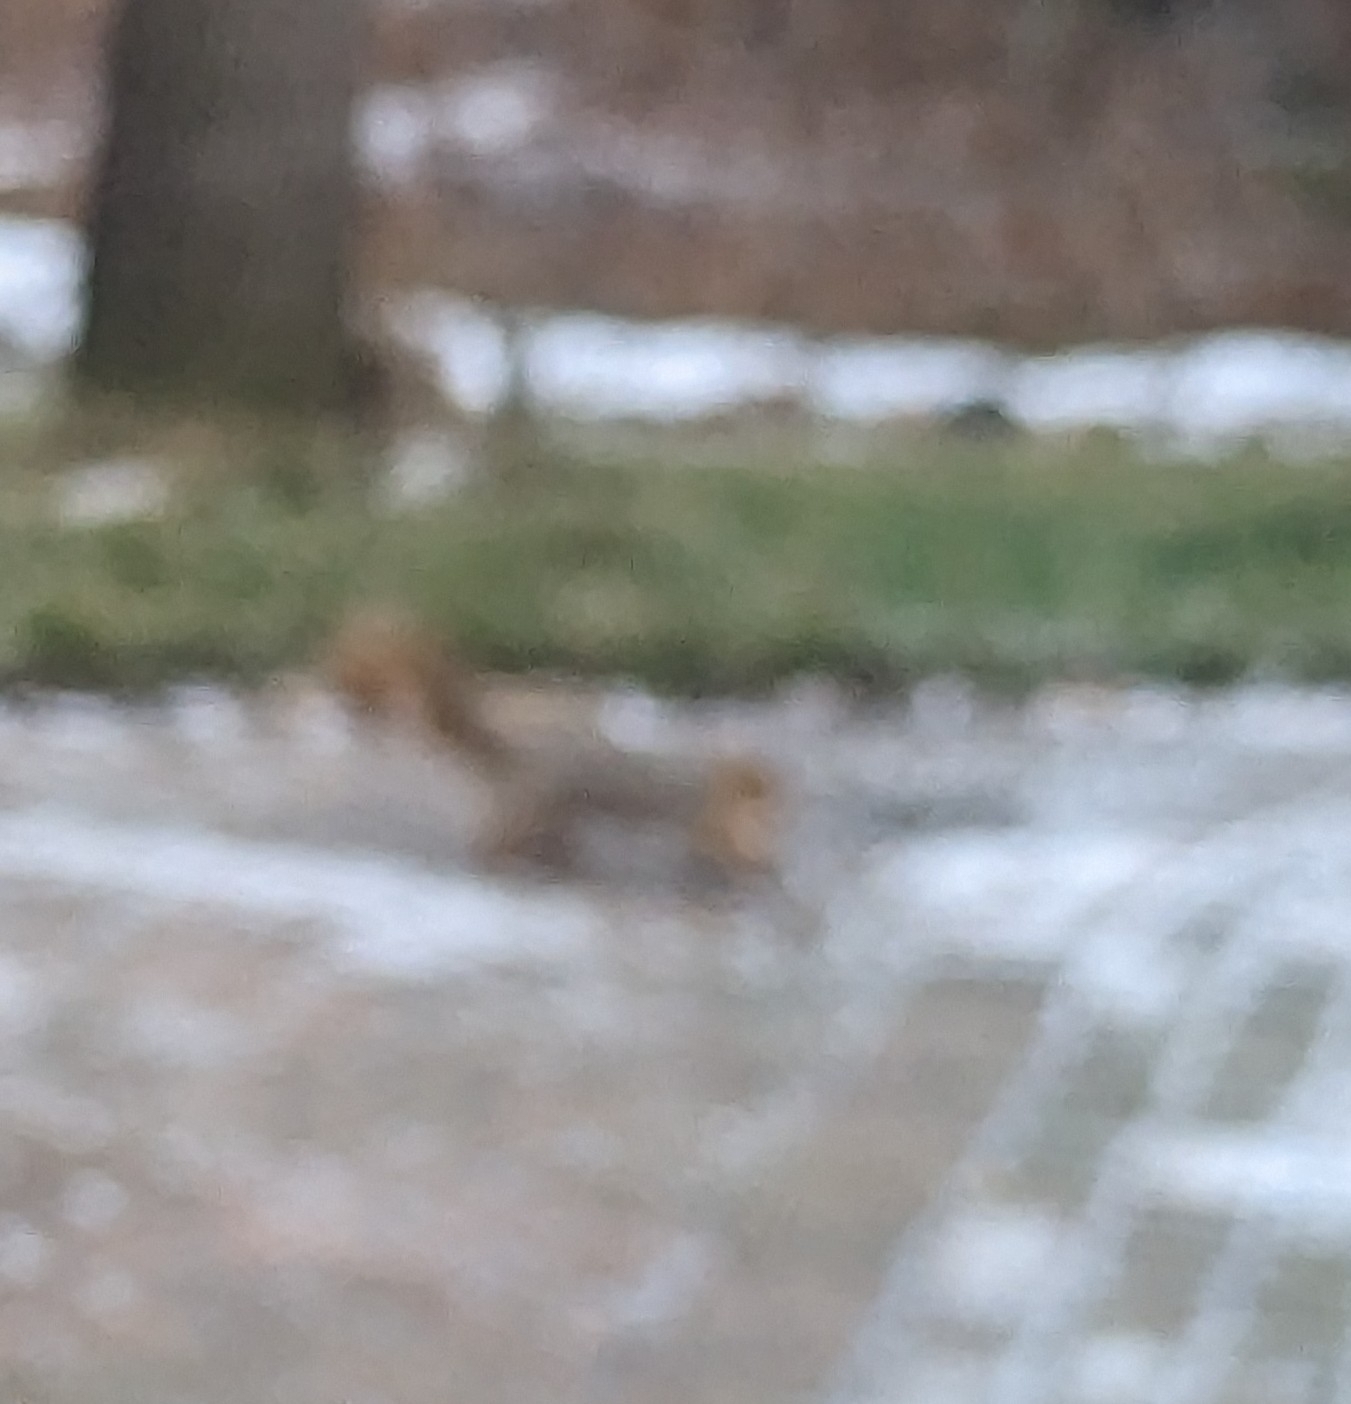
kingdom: Animalia
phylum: Chordata
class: Mammalia
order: Rodentia
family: Sciuridae
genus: Sciurus
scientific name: Sciurus niger
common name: Fox squirrel
